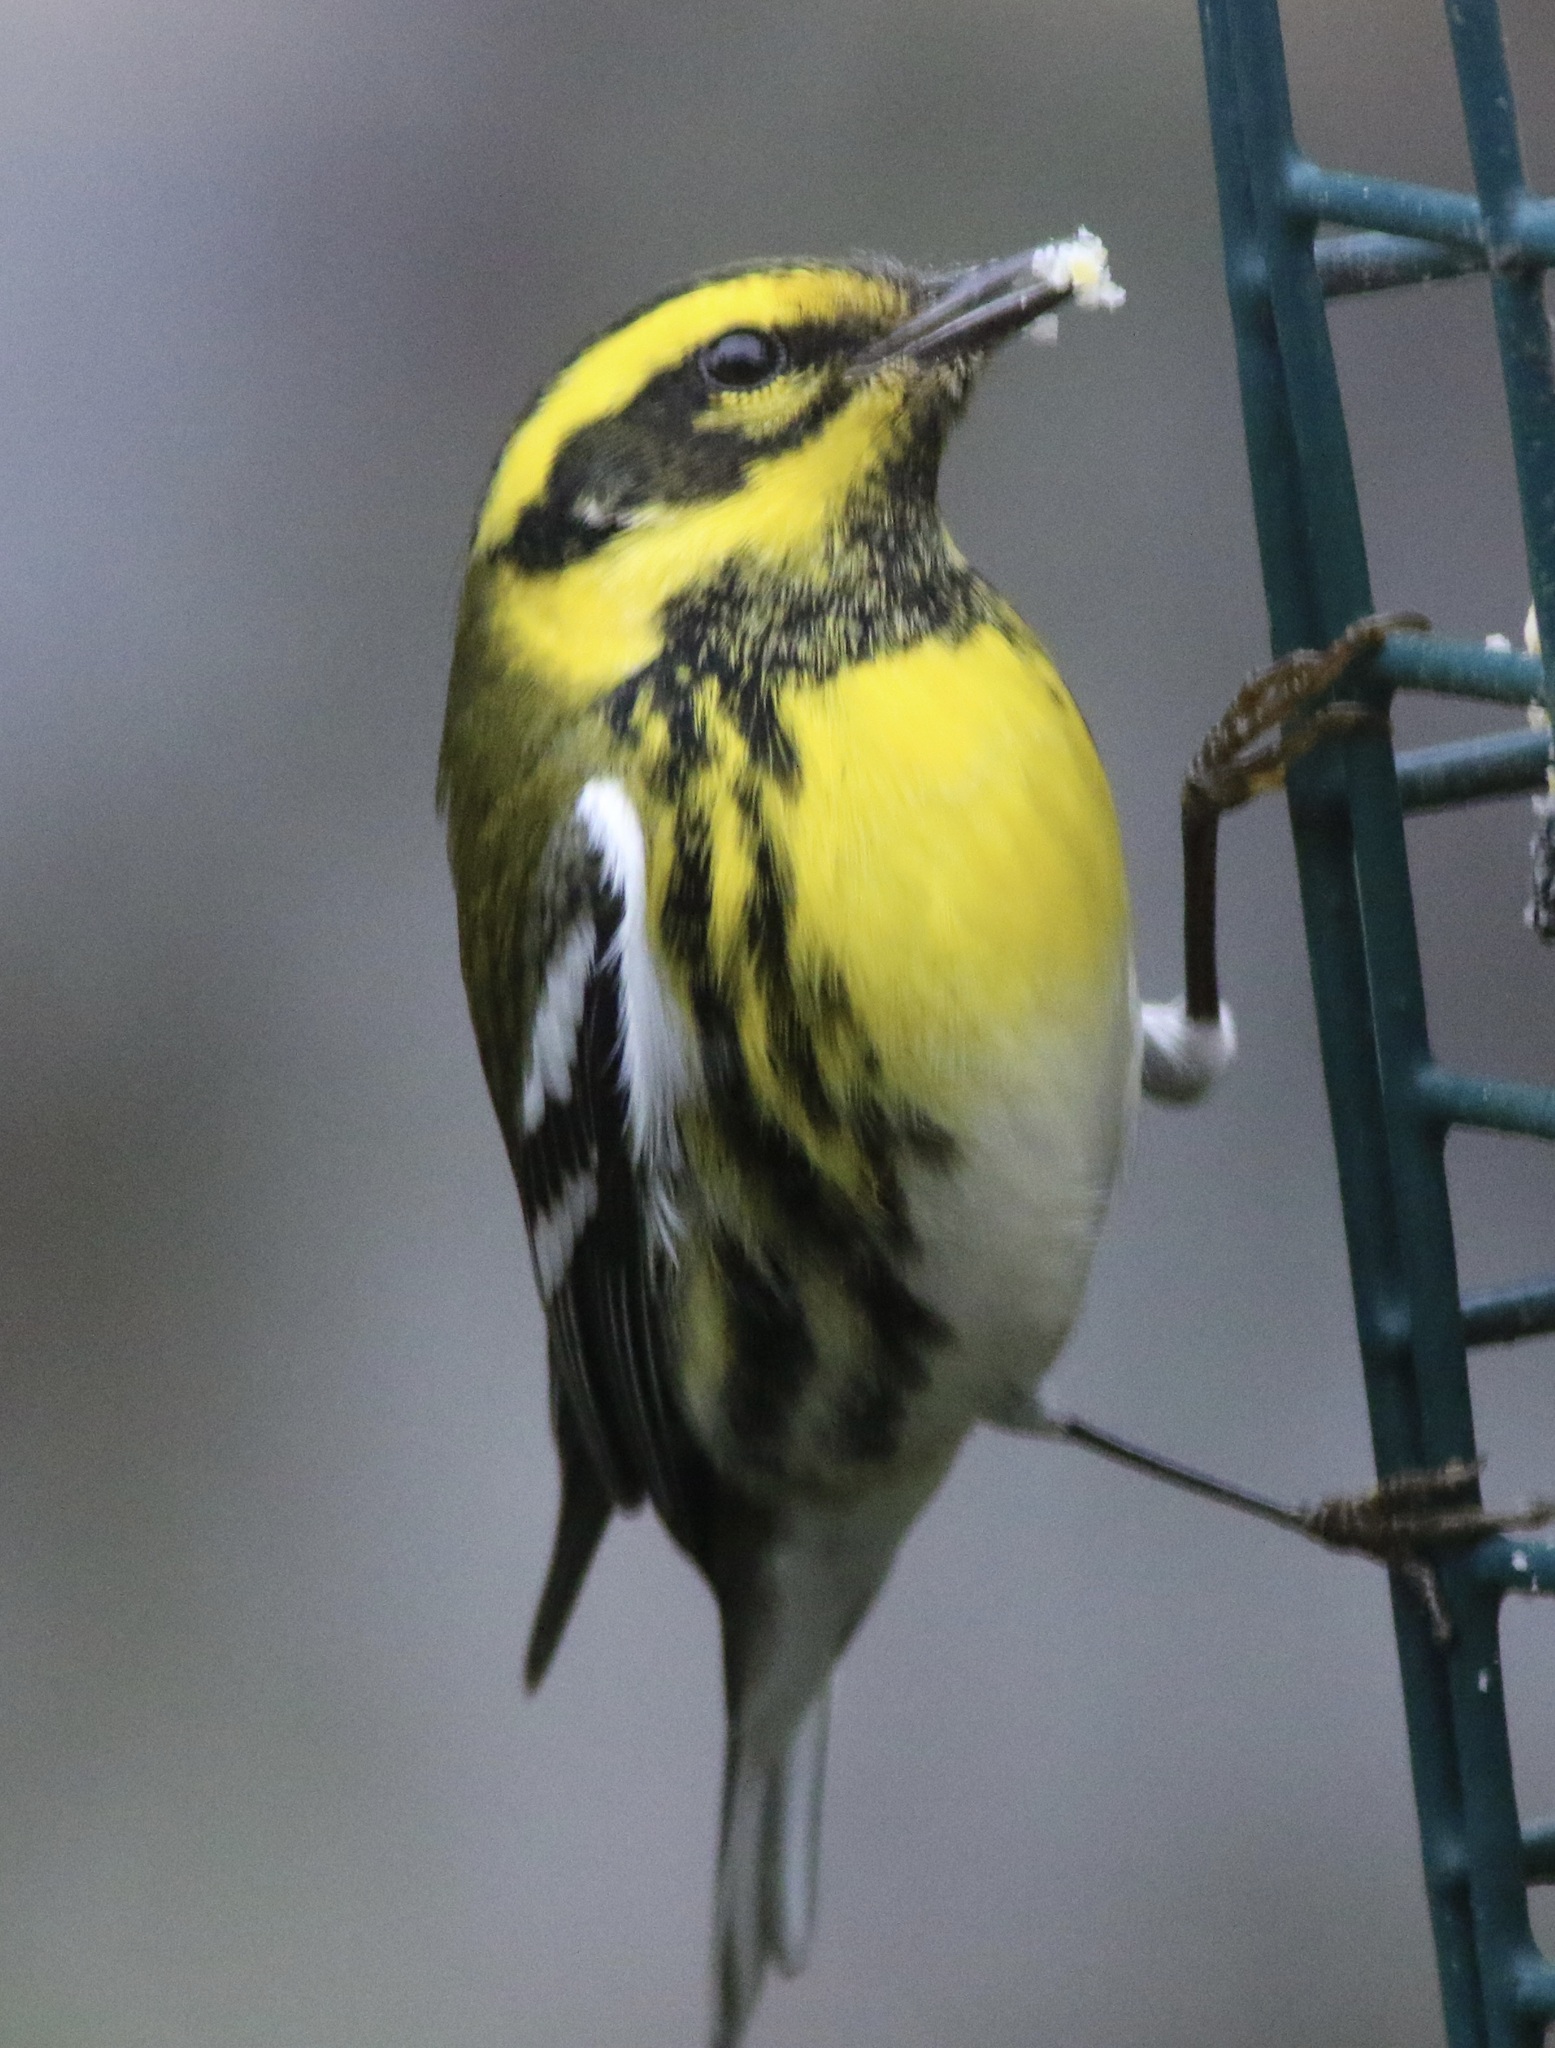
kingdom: Animalia
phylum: Chordata
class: Aves
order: Passeriformes
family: Parulidae
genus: Setophaga
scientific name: Setophaga townsendi
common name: Townsend's warbler
